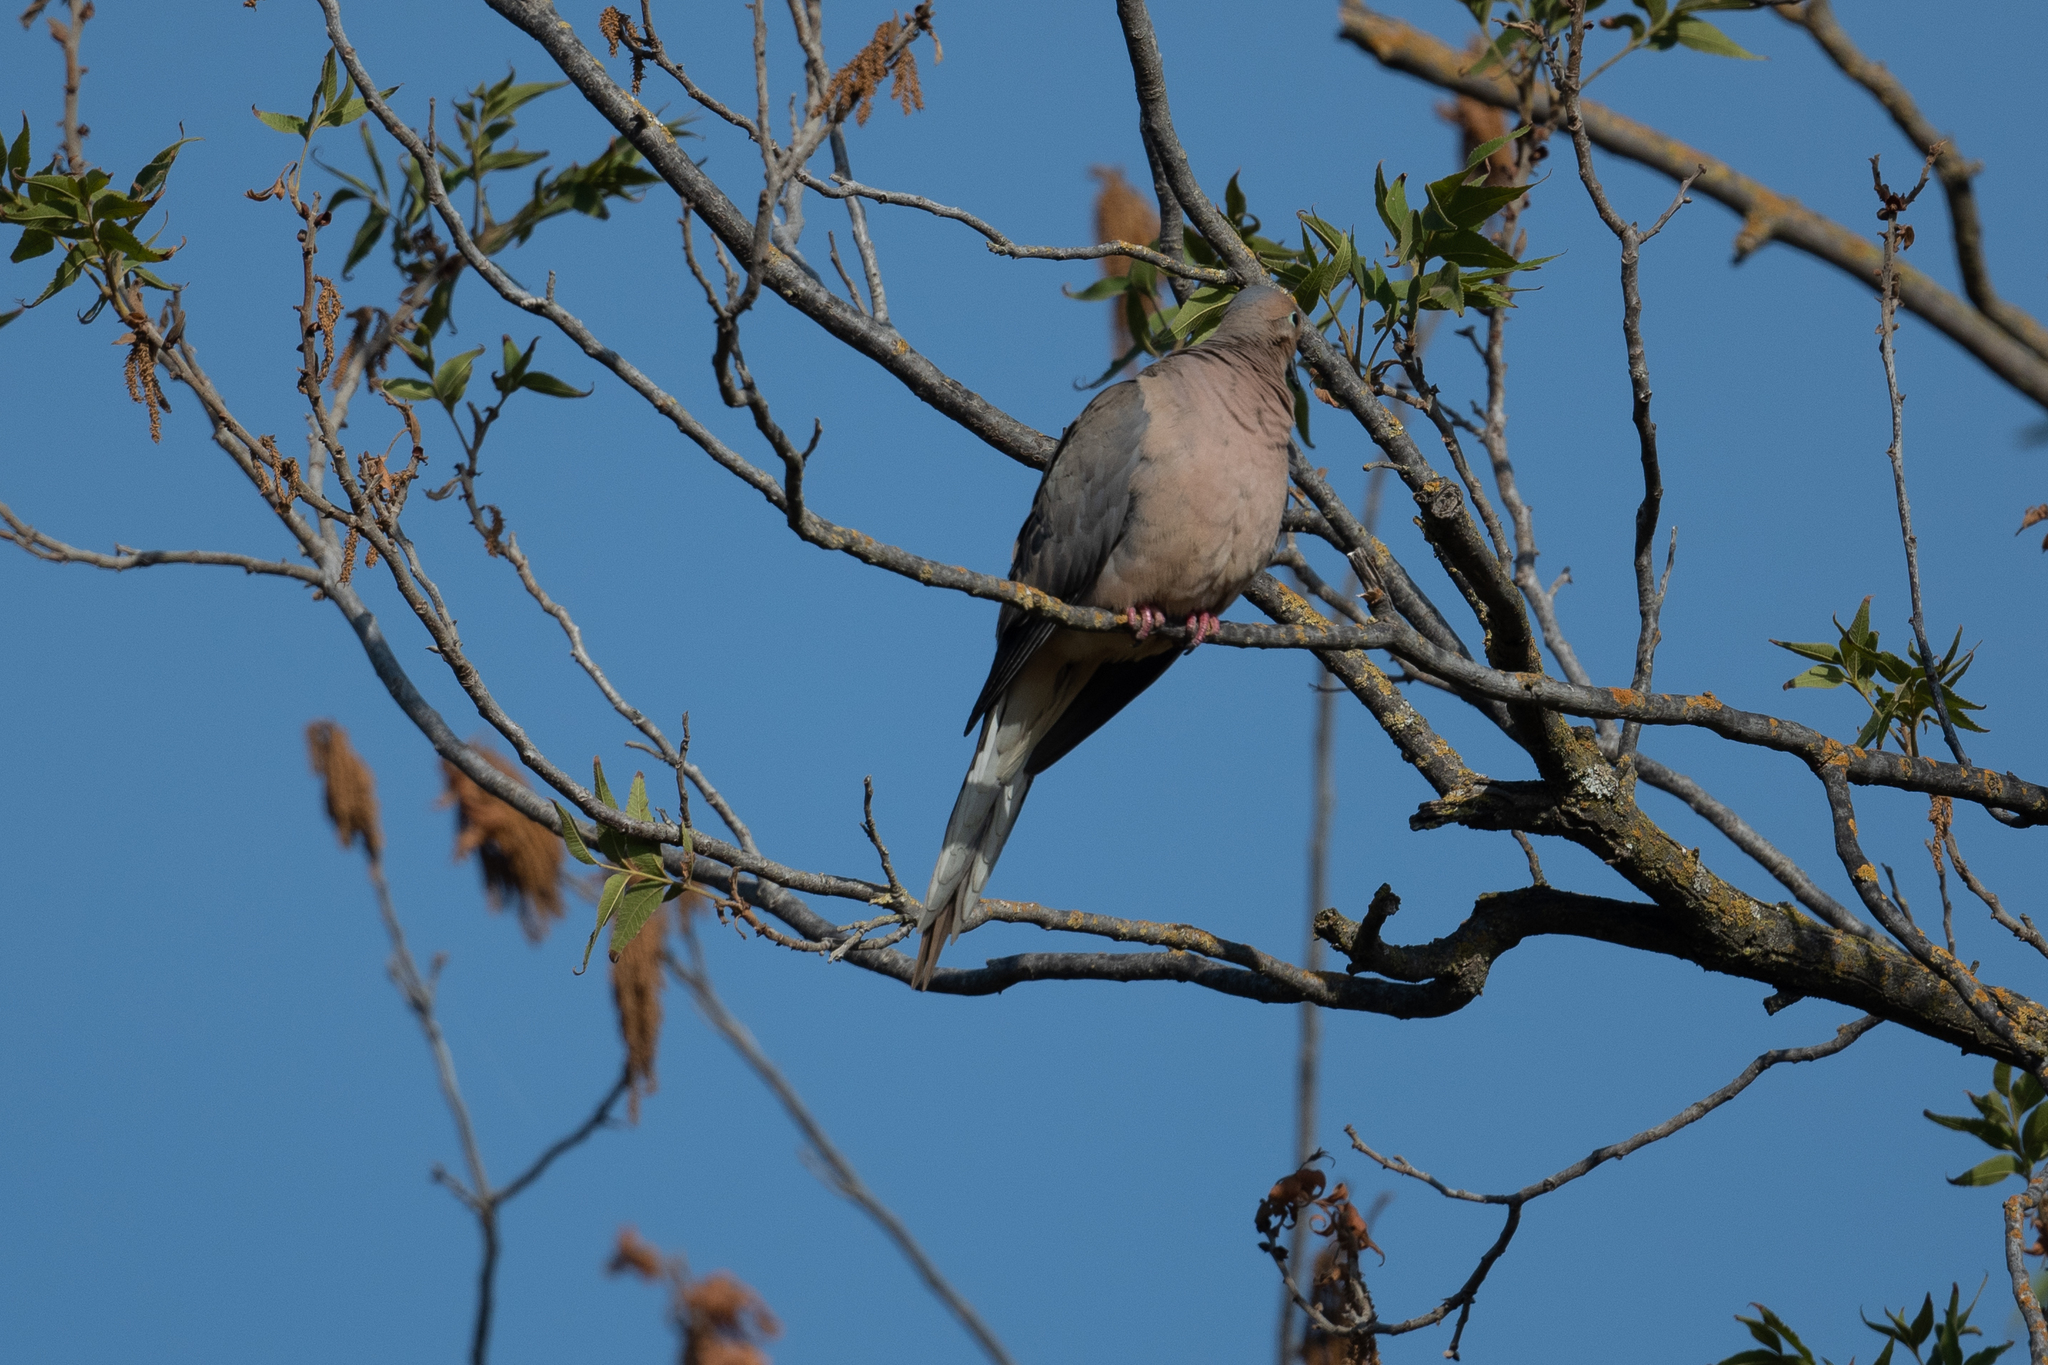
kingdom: Animalia
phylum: Chordata
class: Aves
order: Columbiformes
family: Columbidae
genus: Zenaida
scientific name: Zenaida macroura
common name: Mourning dove
